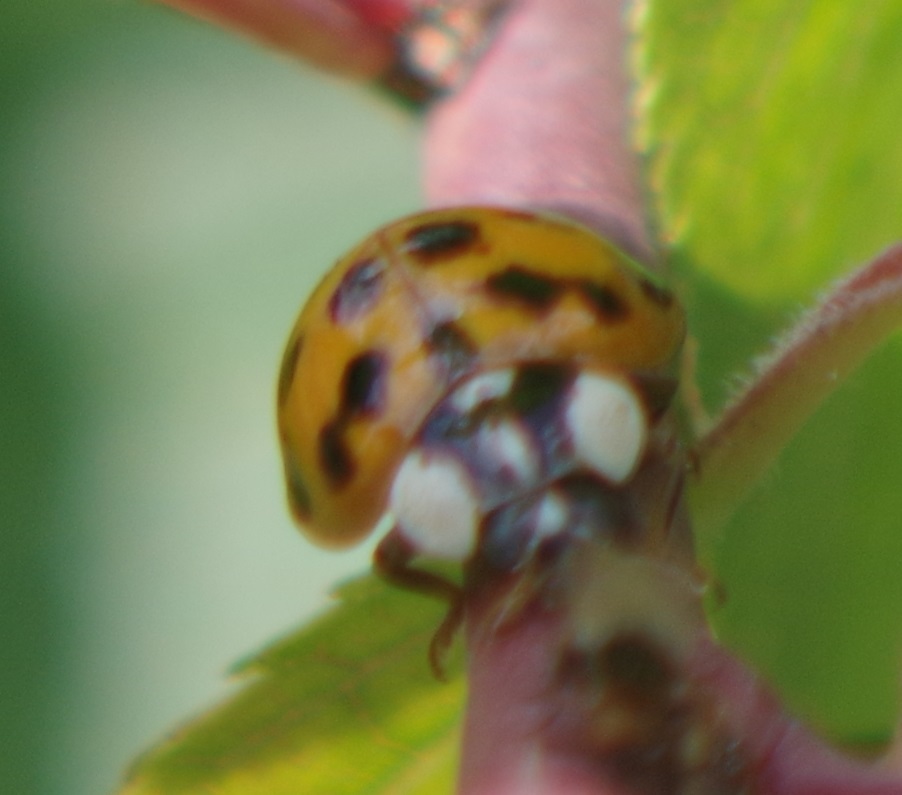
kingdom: Animalia
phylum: Arthropoda
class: Insecta
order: Coleoptera
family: Coccinellidae
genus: Harmonia
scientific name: Harmonia axyridis
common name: Harlequin ladybird
